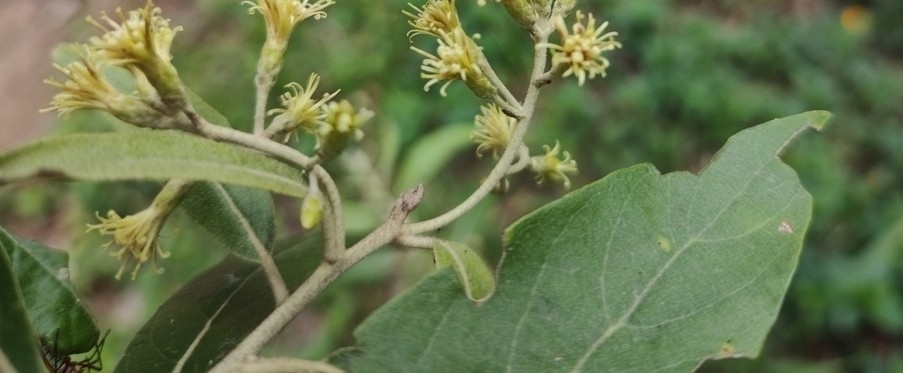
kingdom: Plantae
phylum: Tracheophyta
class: Magnoliopsida
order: Asterales
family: Asteraceae
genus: Moquiniastrum
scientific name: Moquiniastrum polymorphum
